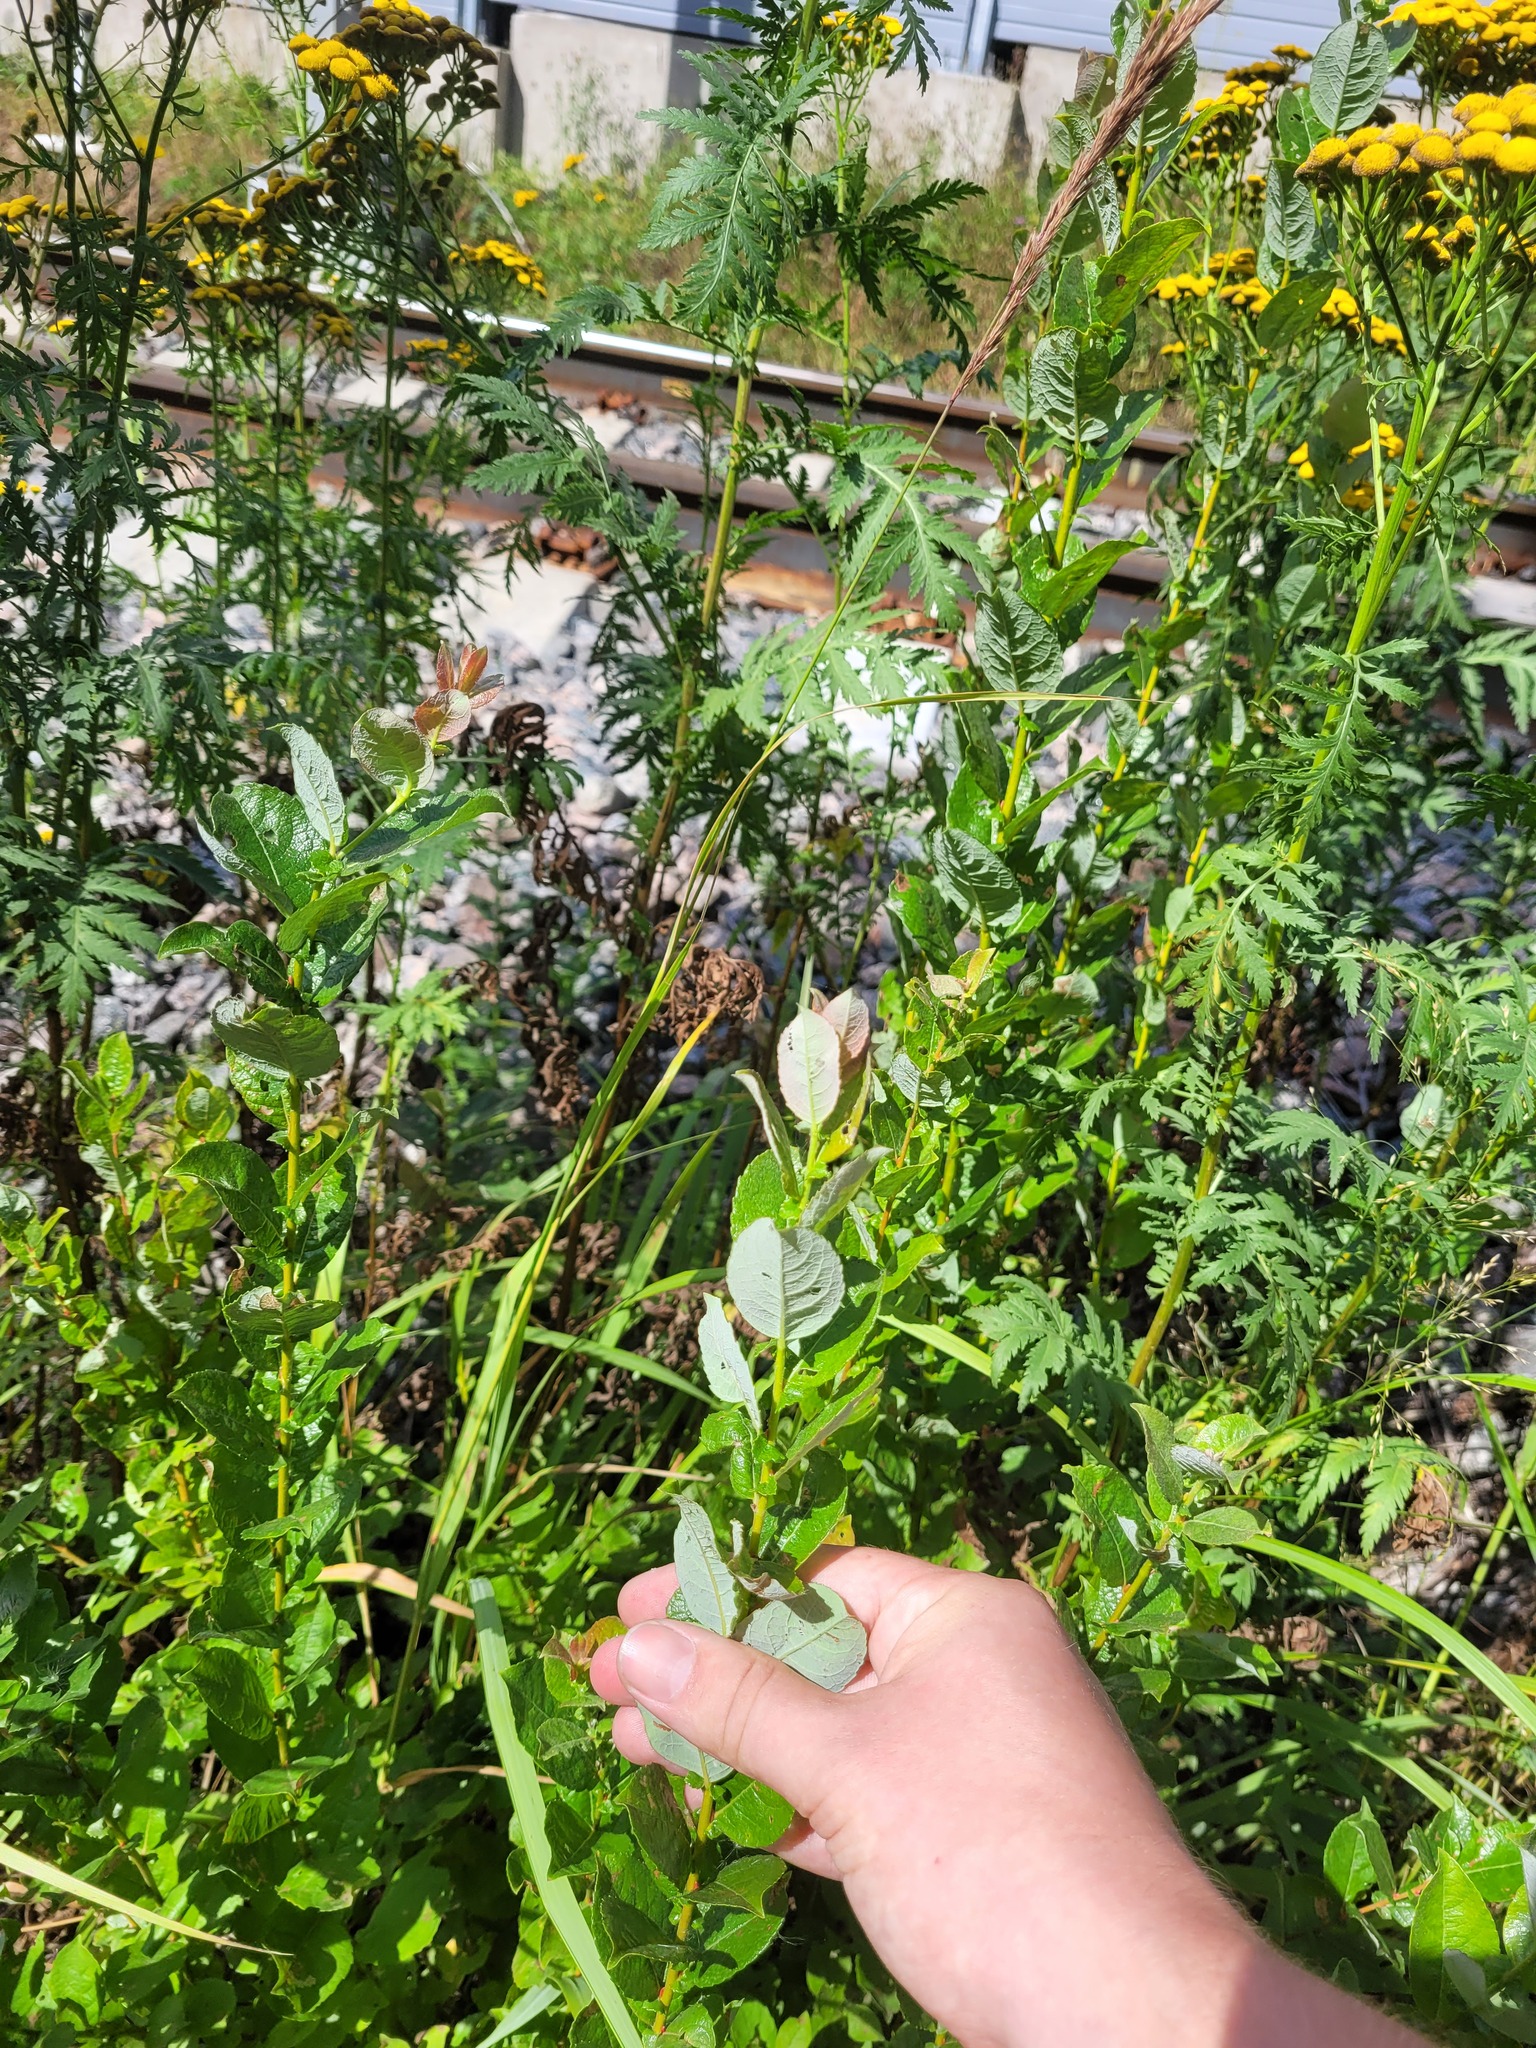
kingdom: Plantae
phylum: Tracheophyta
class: Magnoliopsida
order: Malpighiales
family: Salicaceae
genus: Salix
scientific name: Salix starkeana
